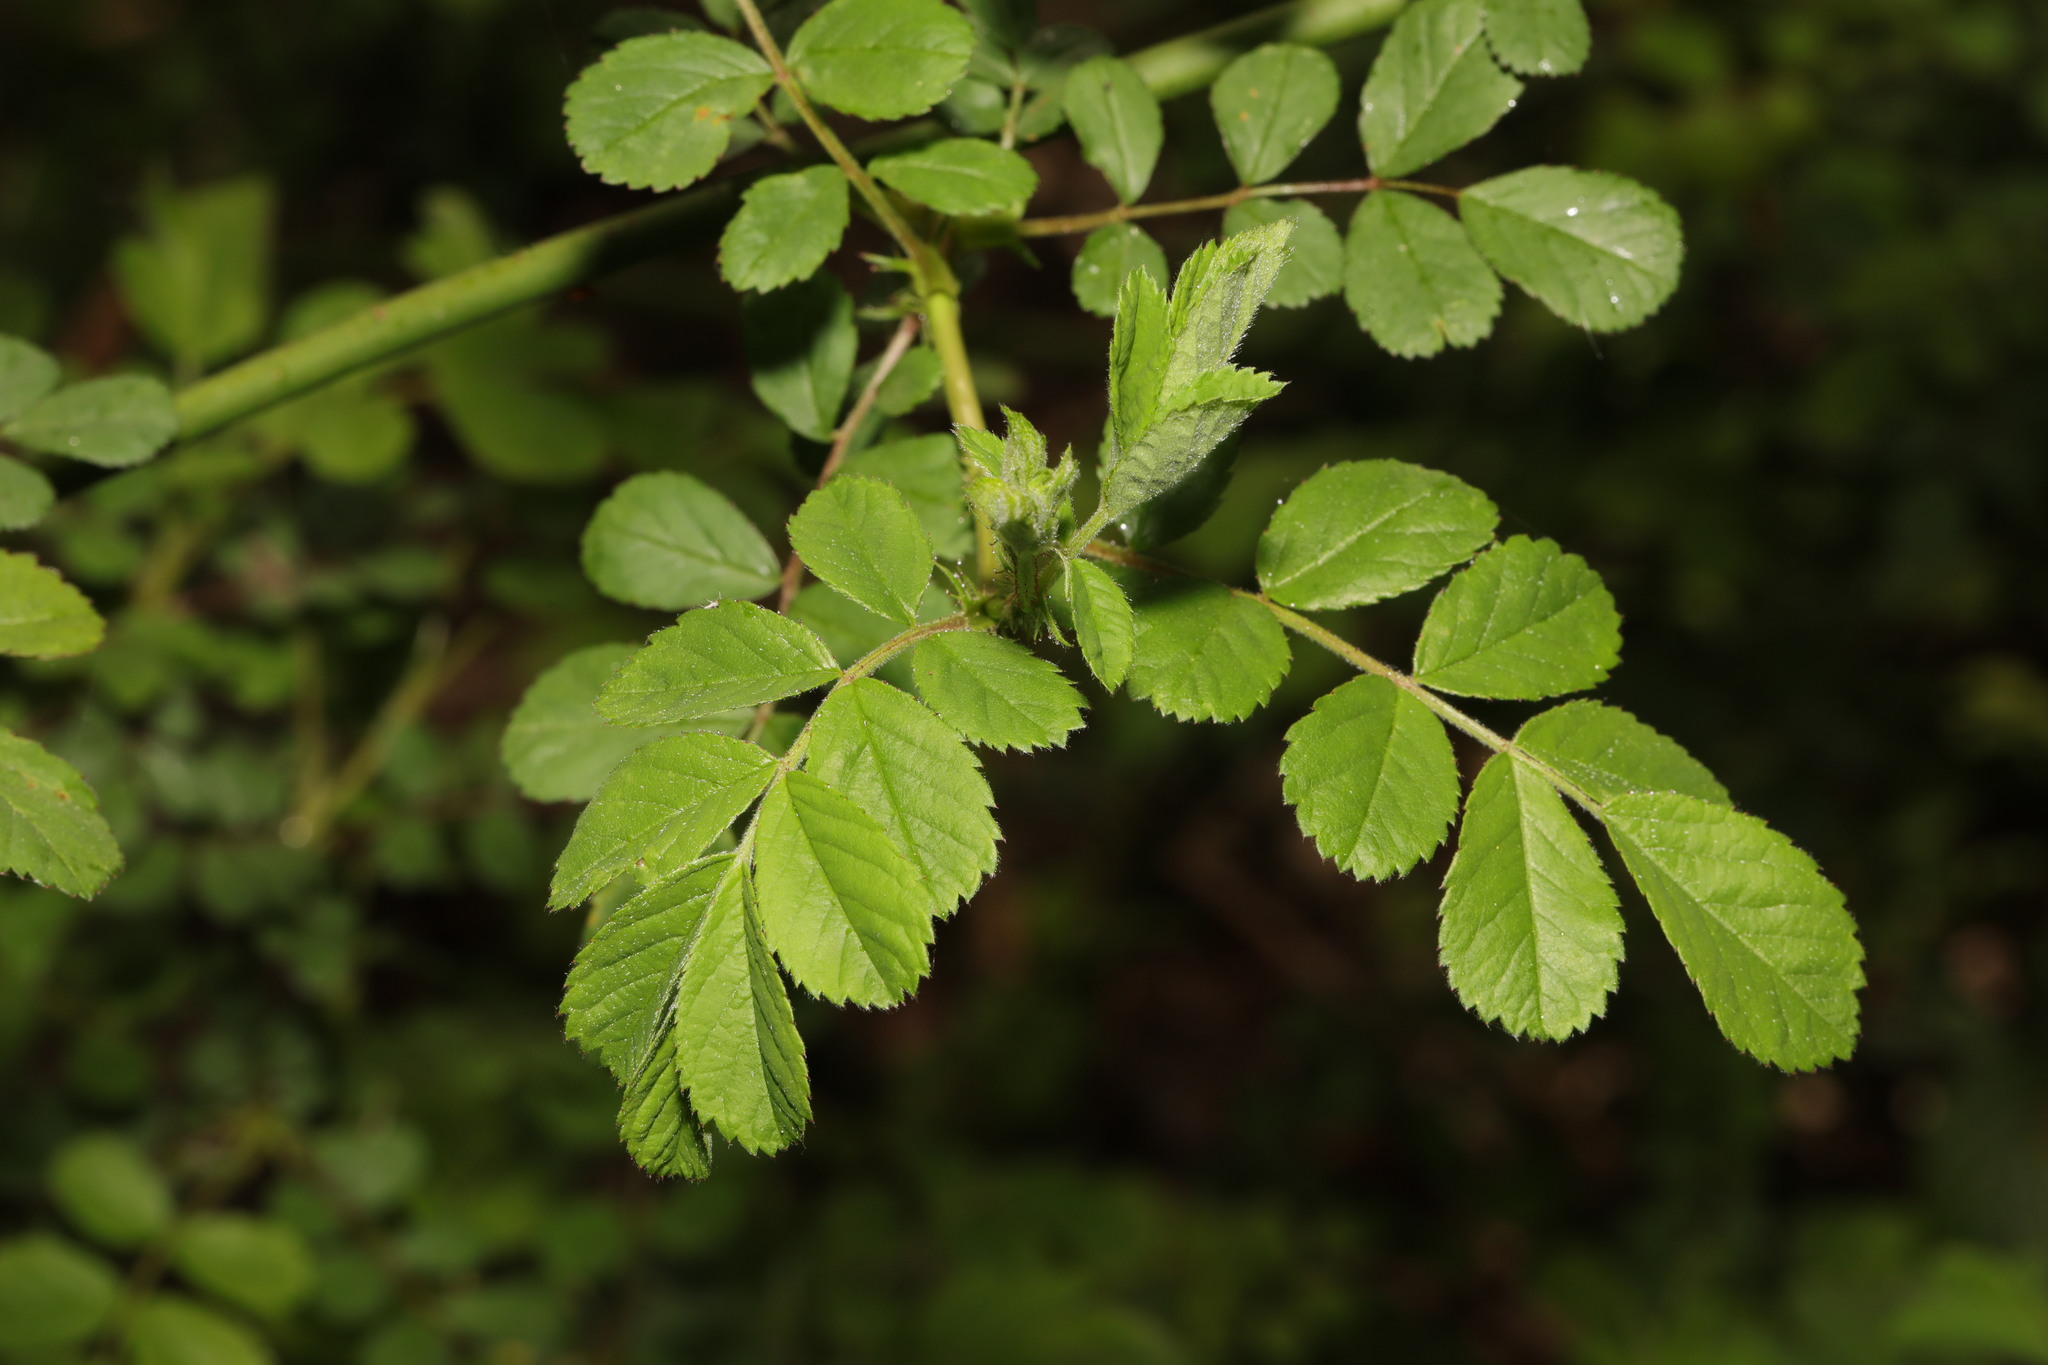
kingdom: Plantae
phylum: Tracheophyta
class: Magnoliopsida
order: Rosales
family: Rosaceae
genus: Rosa
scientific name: Rosa multiflora
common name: Multiflora rose
